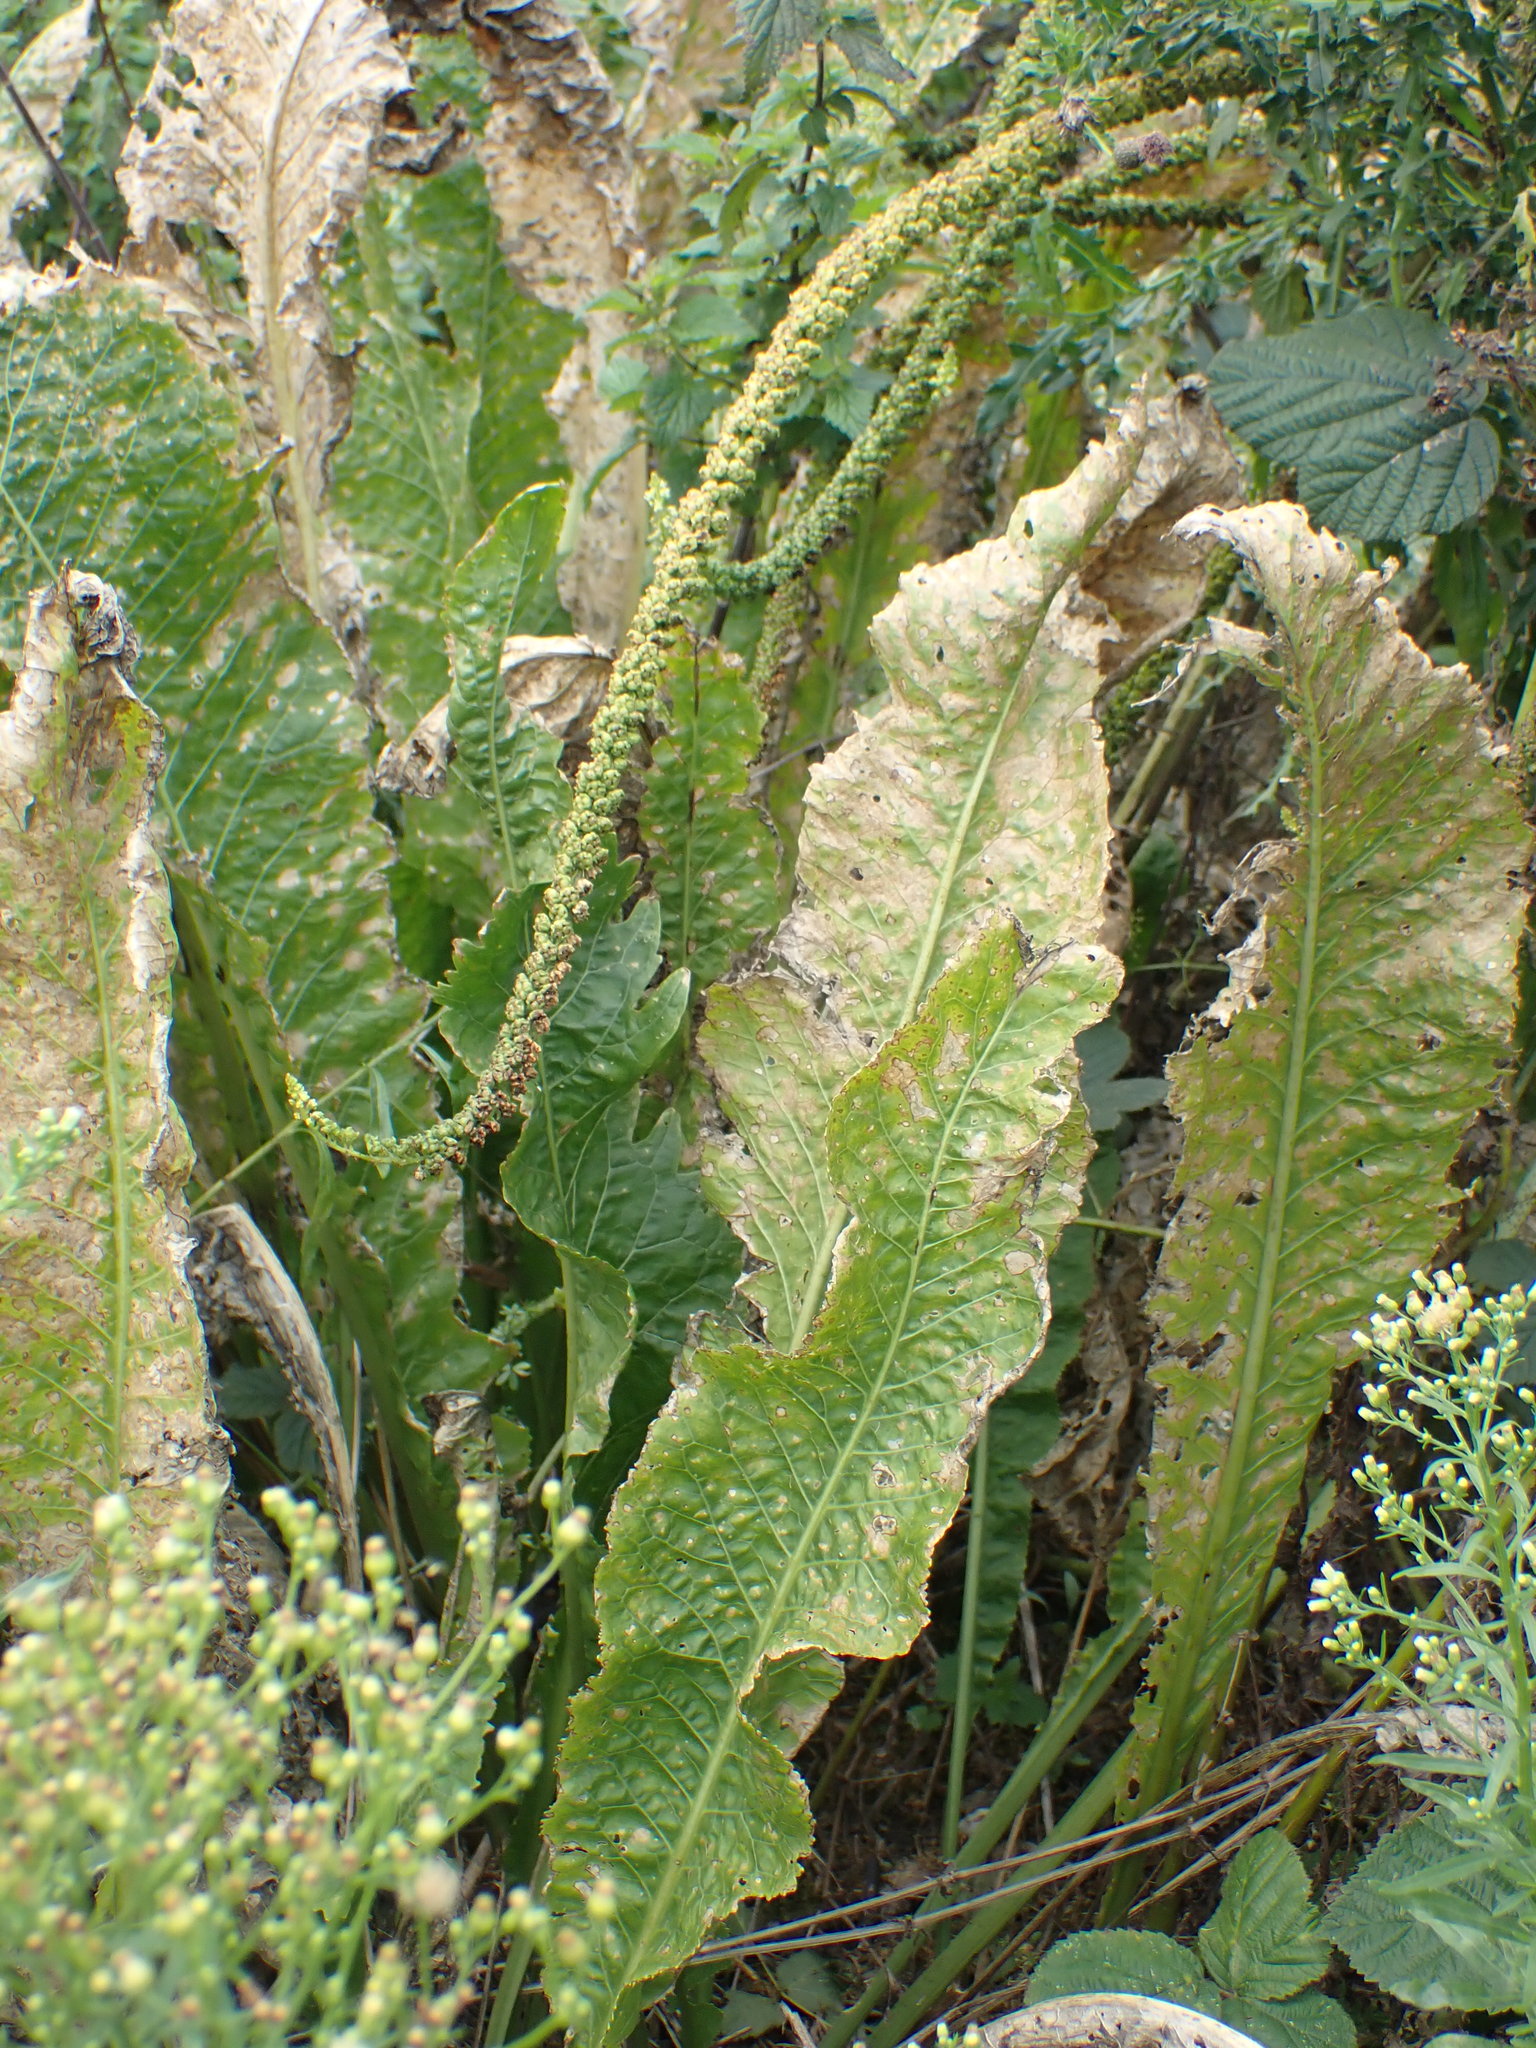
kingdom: Plantae
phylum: Tracheophyta
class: Magnoliopsida
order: Brassicales
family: Brassicaceae
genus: Armoracia
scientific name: Armoracia rusticana
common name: Horseradish
